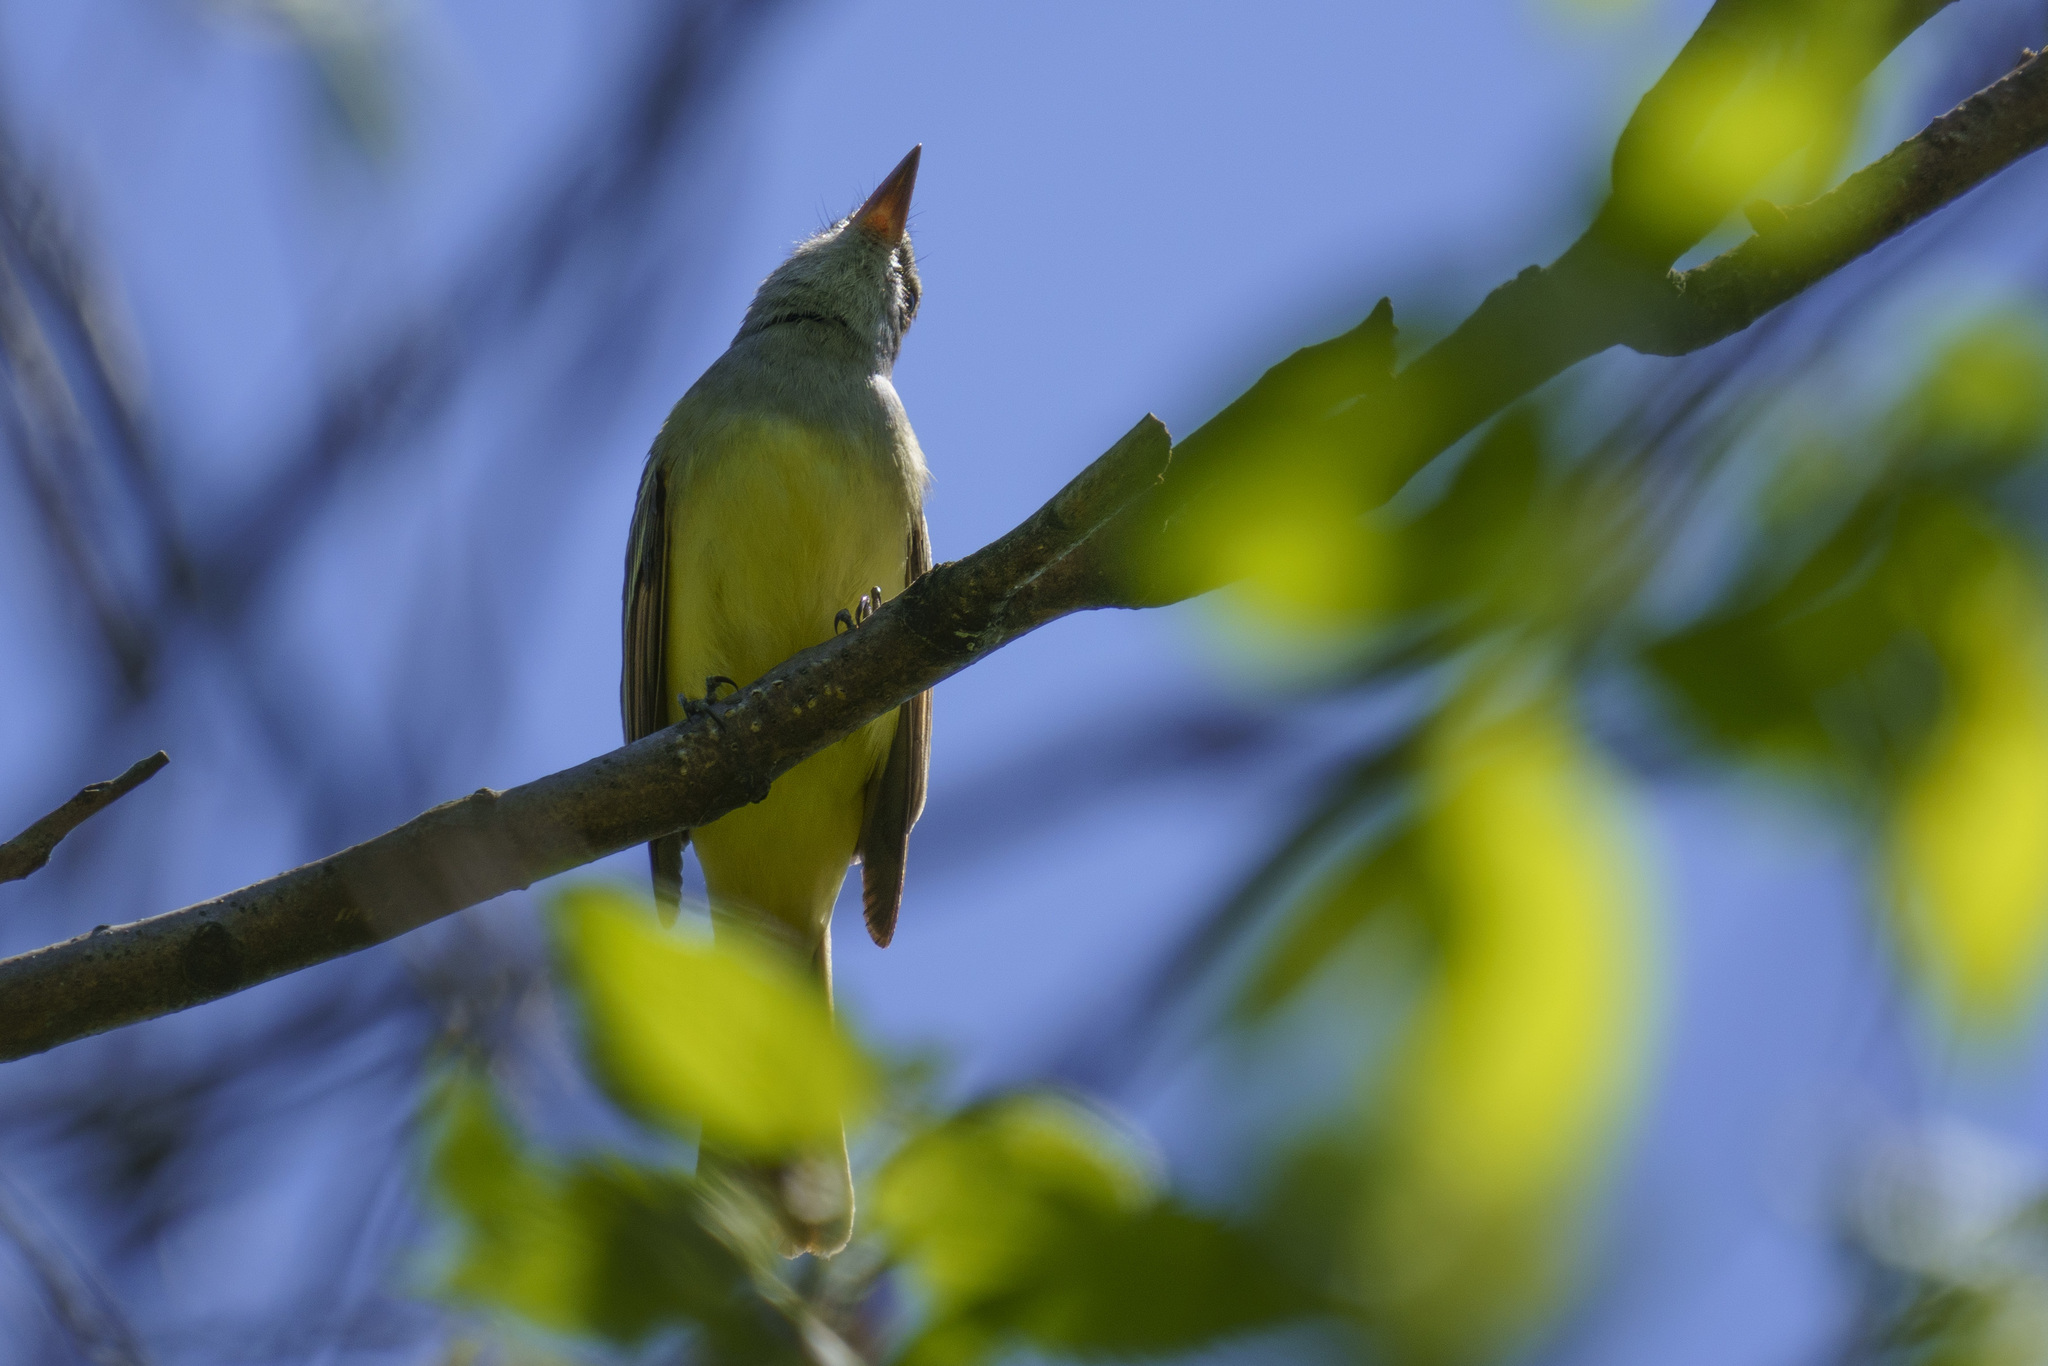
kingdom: Animalia
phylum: Chordata
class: Aves
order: Passeriformes
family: Tyrannidae
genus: Myiarchus
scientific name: Myiarchus crinitus
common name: Great crested flycatcher
